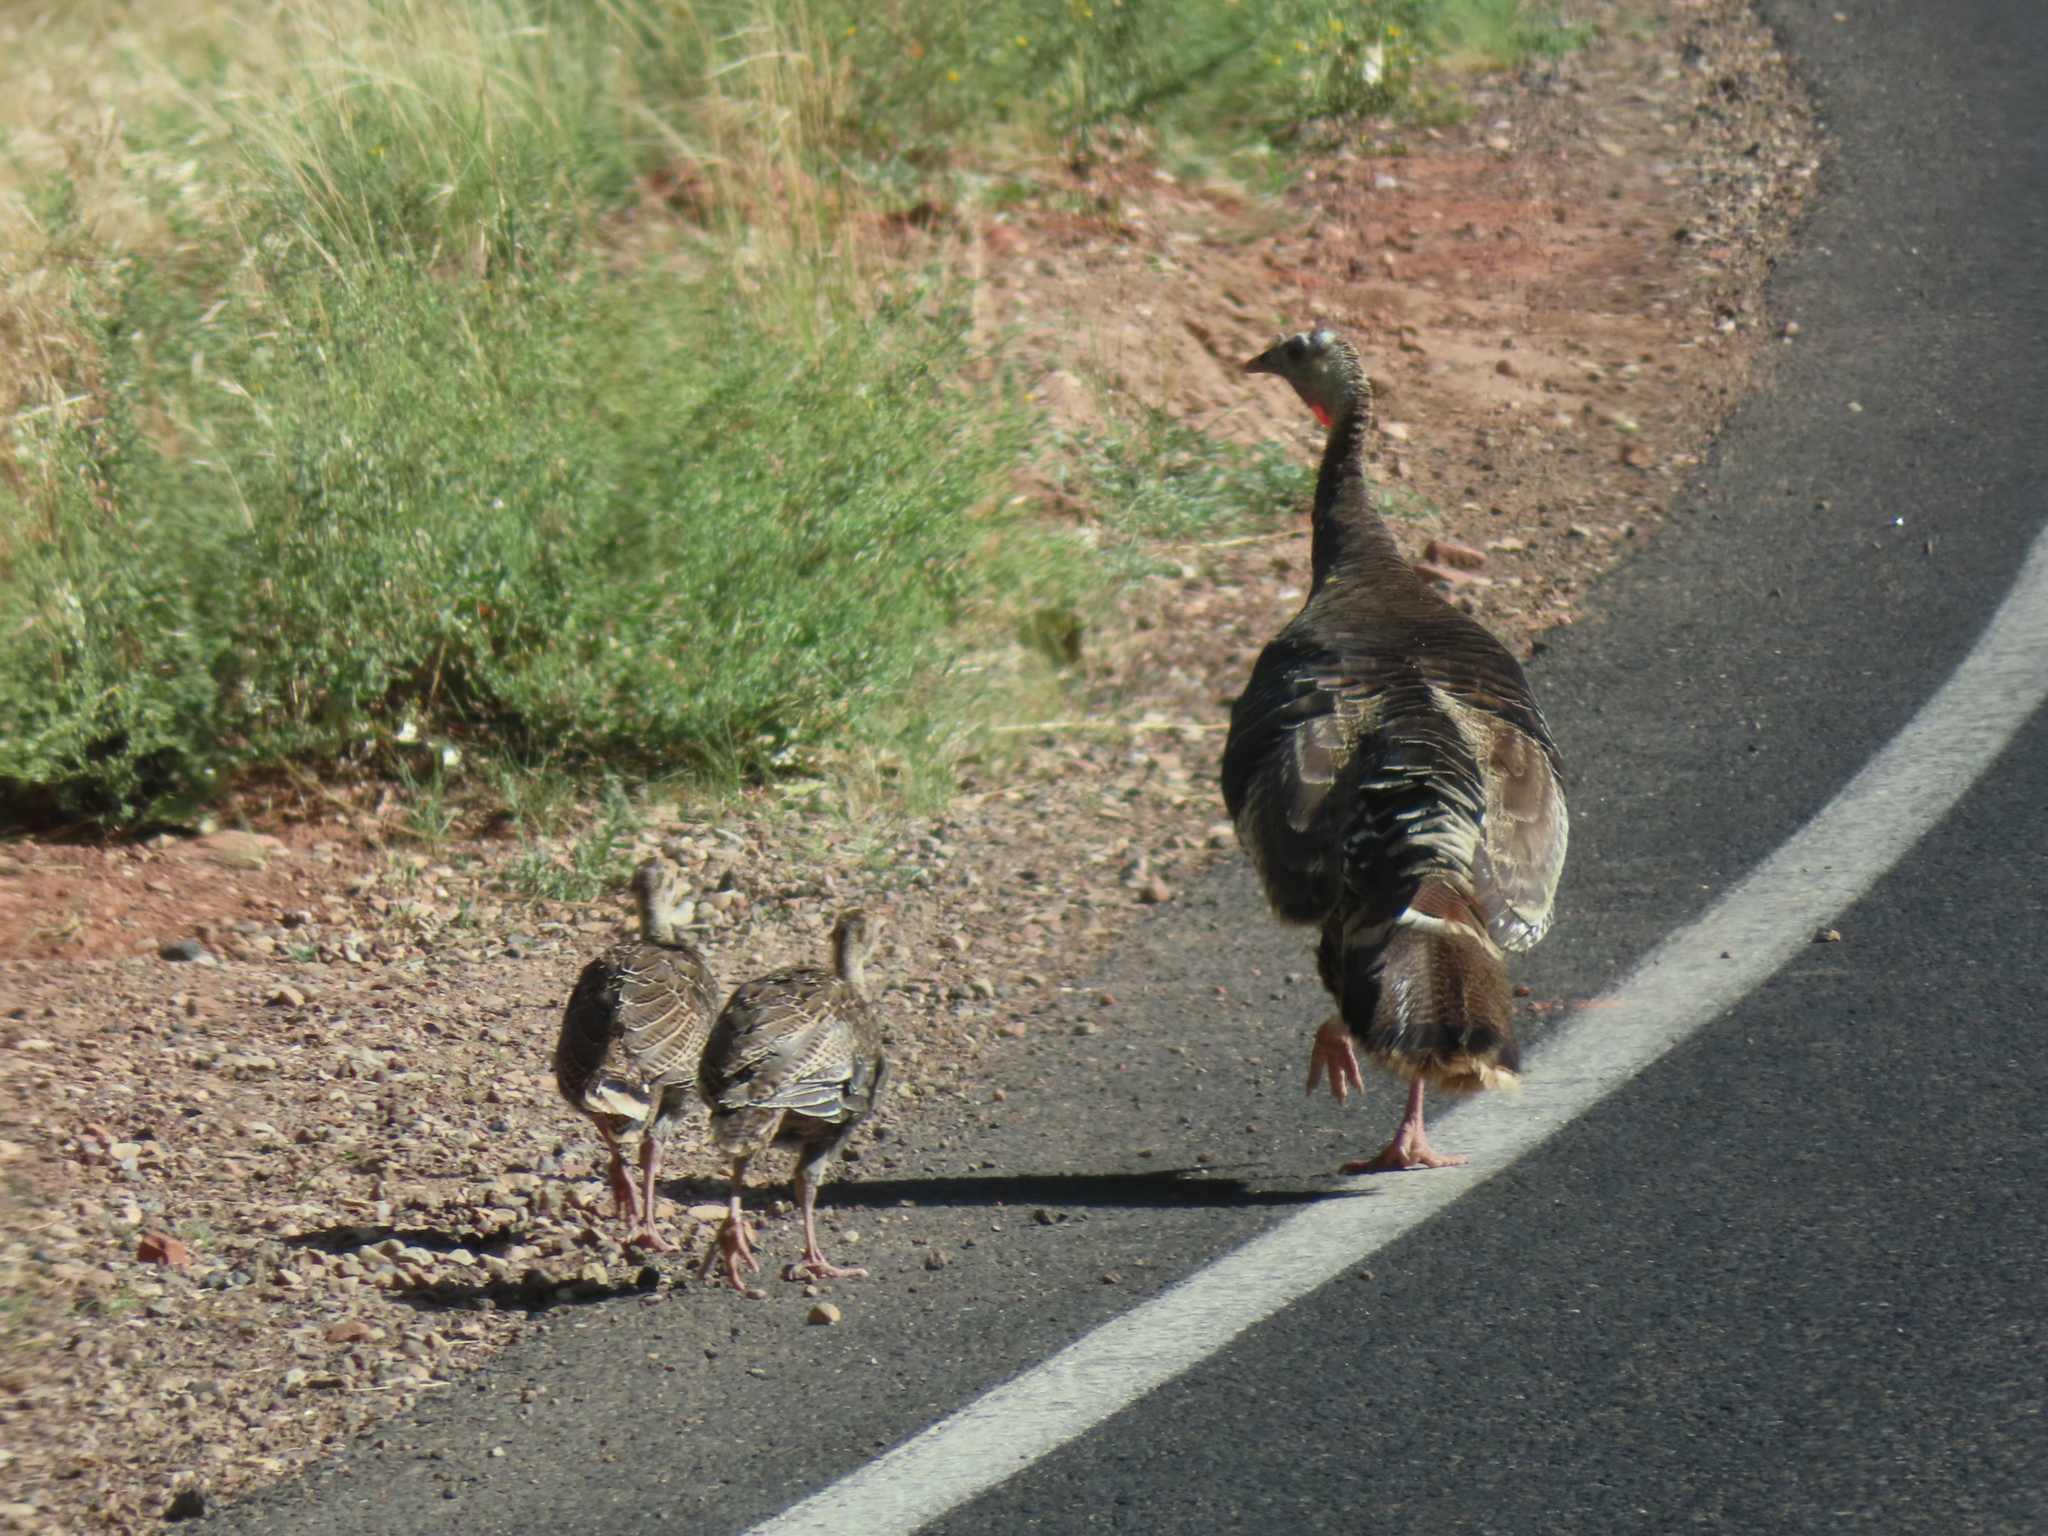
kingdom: Animalia
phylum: Chordata
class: Aves
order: Galliformes
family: Phasianidae
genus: Meleagris
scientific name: Meleagris gallopavo
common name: Wild turkey
